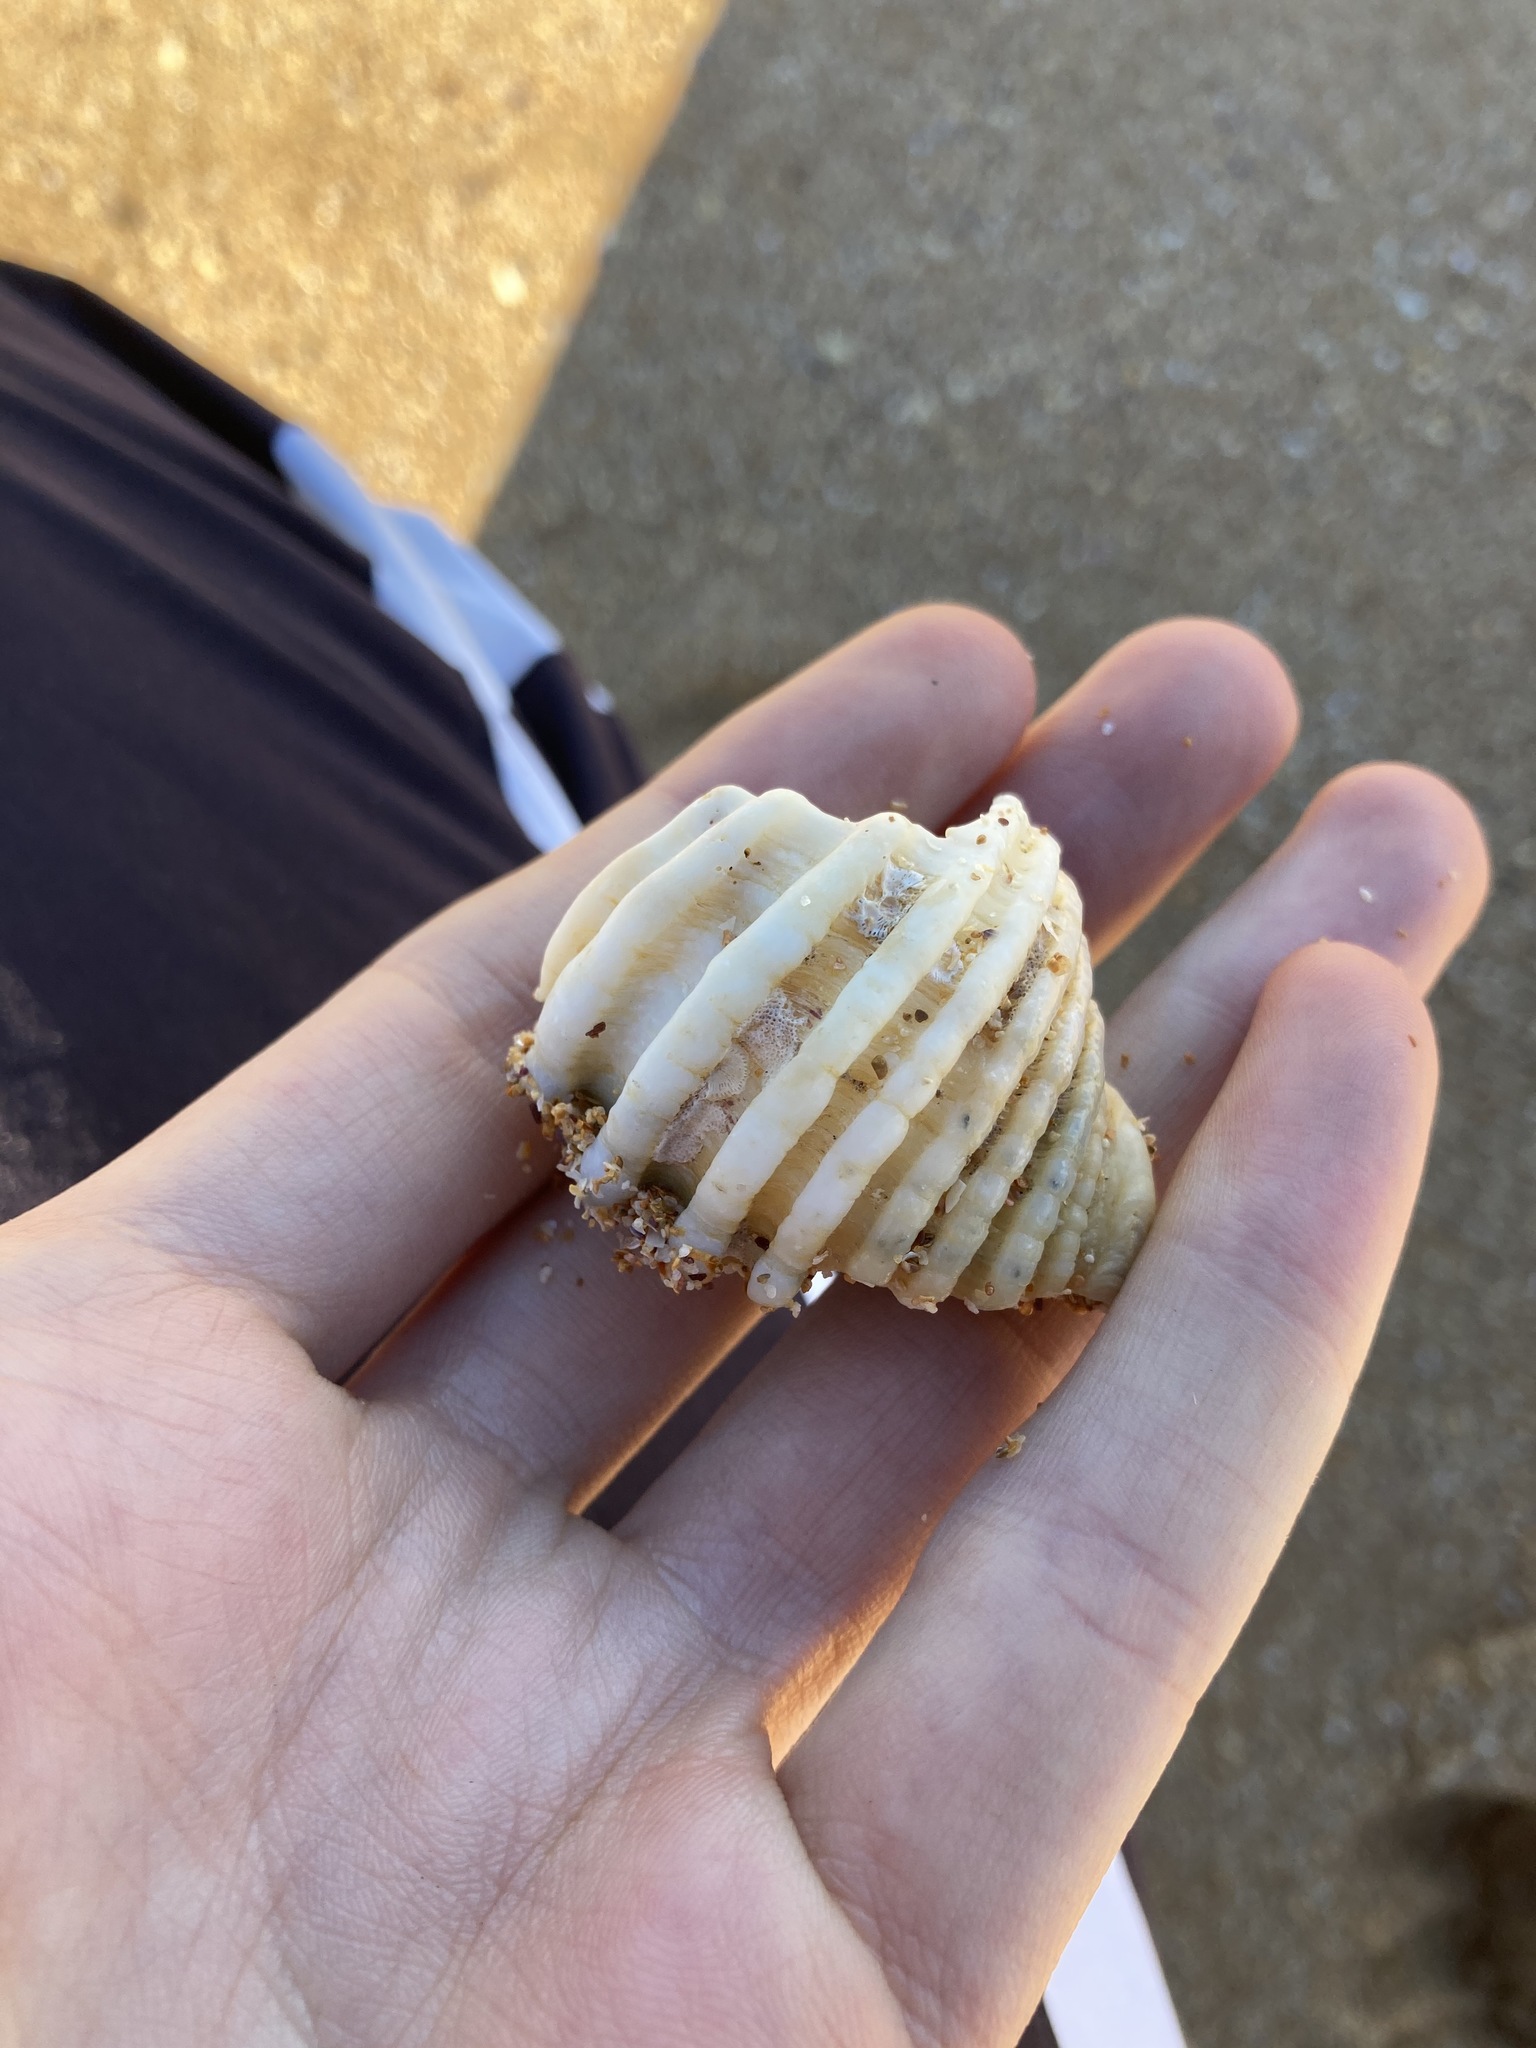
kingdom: Animalia
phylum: Mollusca
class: Gastropoda
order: Neogastropoda
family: Muricidae
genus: Dicathais
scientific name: Dicathais orbita
